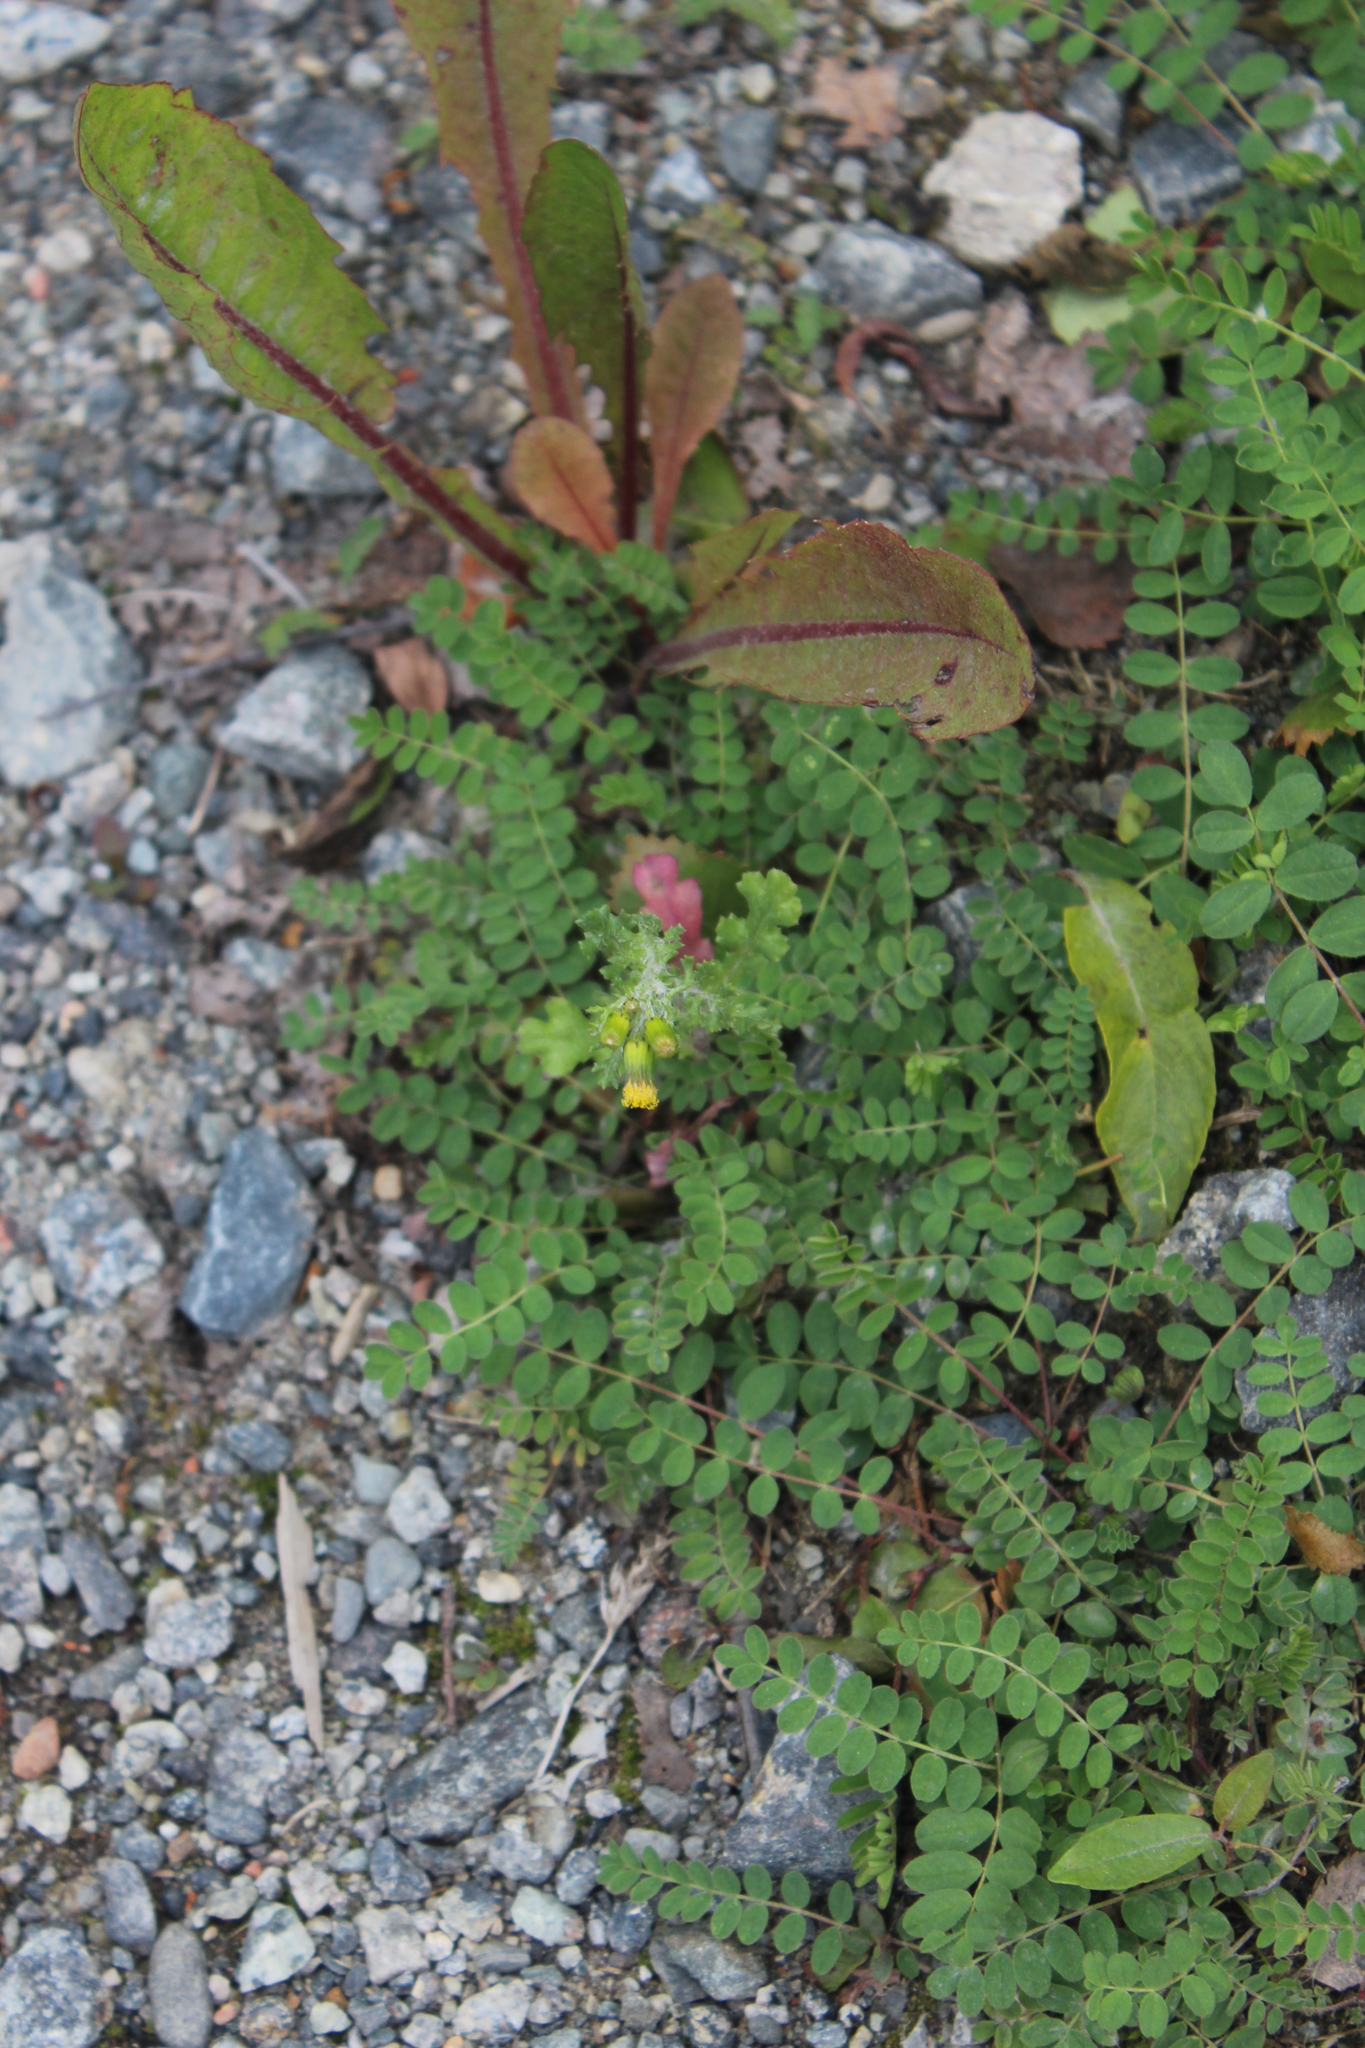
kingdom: Plantae
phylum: Tracheophyta
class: Magnoliopsida
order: Asterales
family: Asteraceae
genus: Senecio
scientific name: Senecio vulgaris
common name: Old-man-in-the-spring
